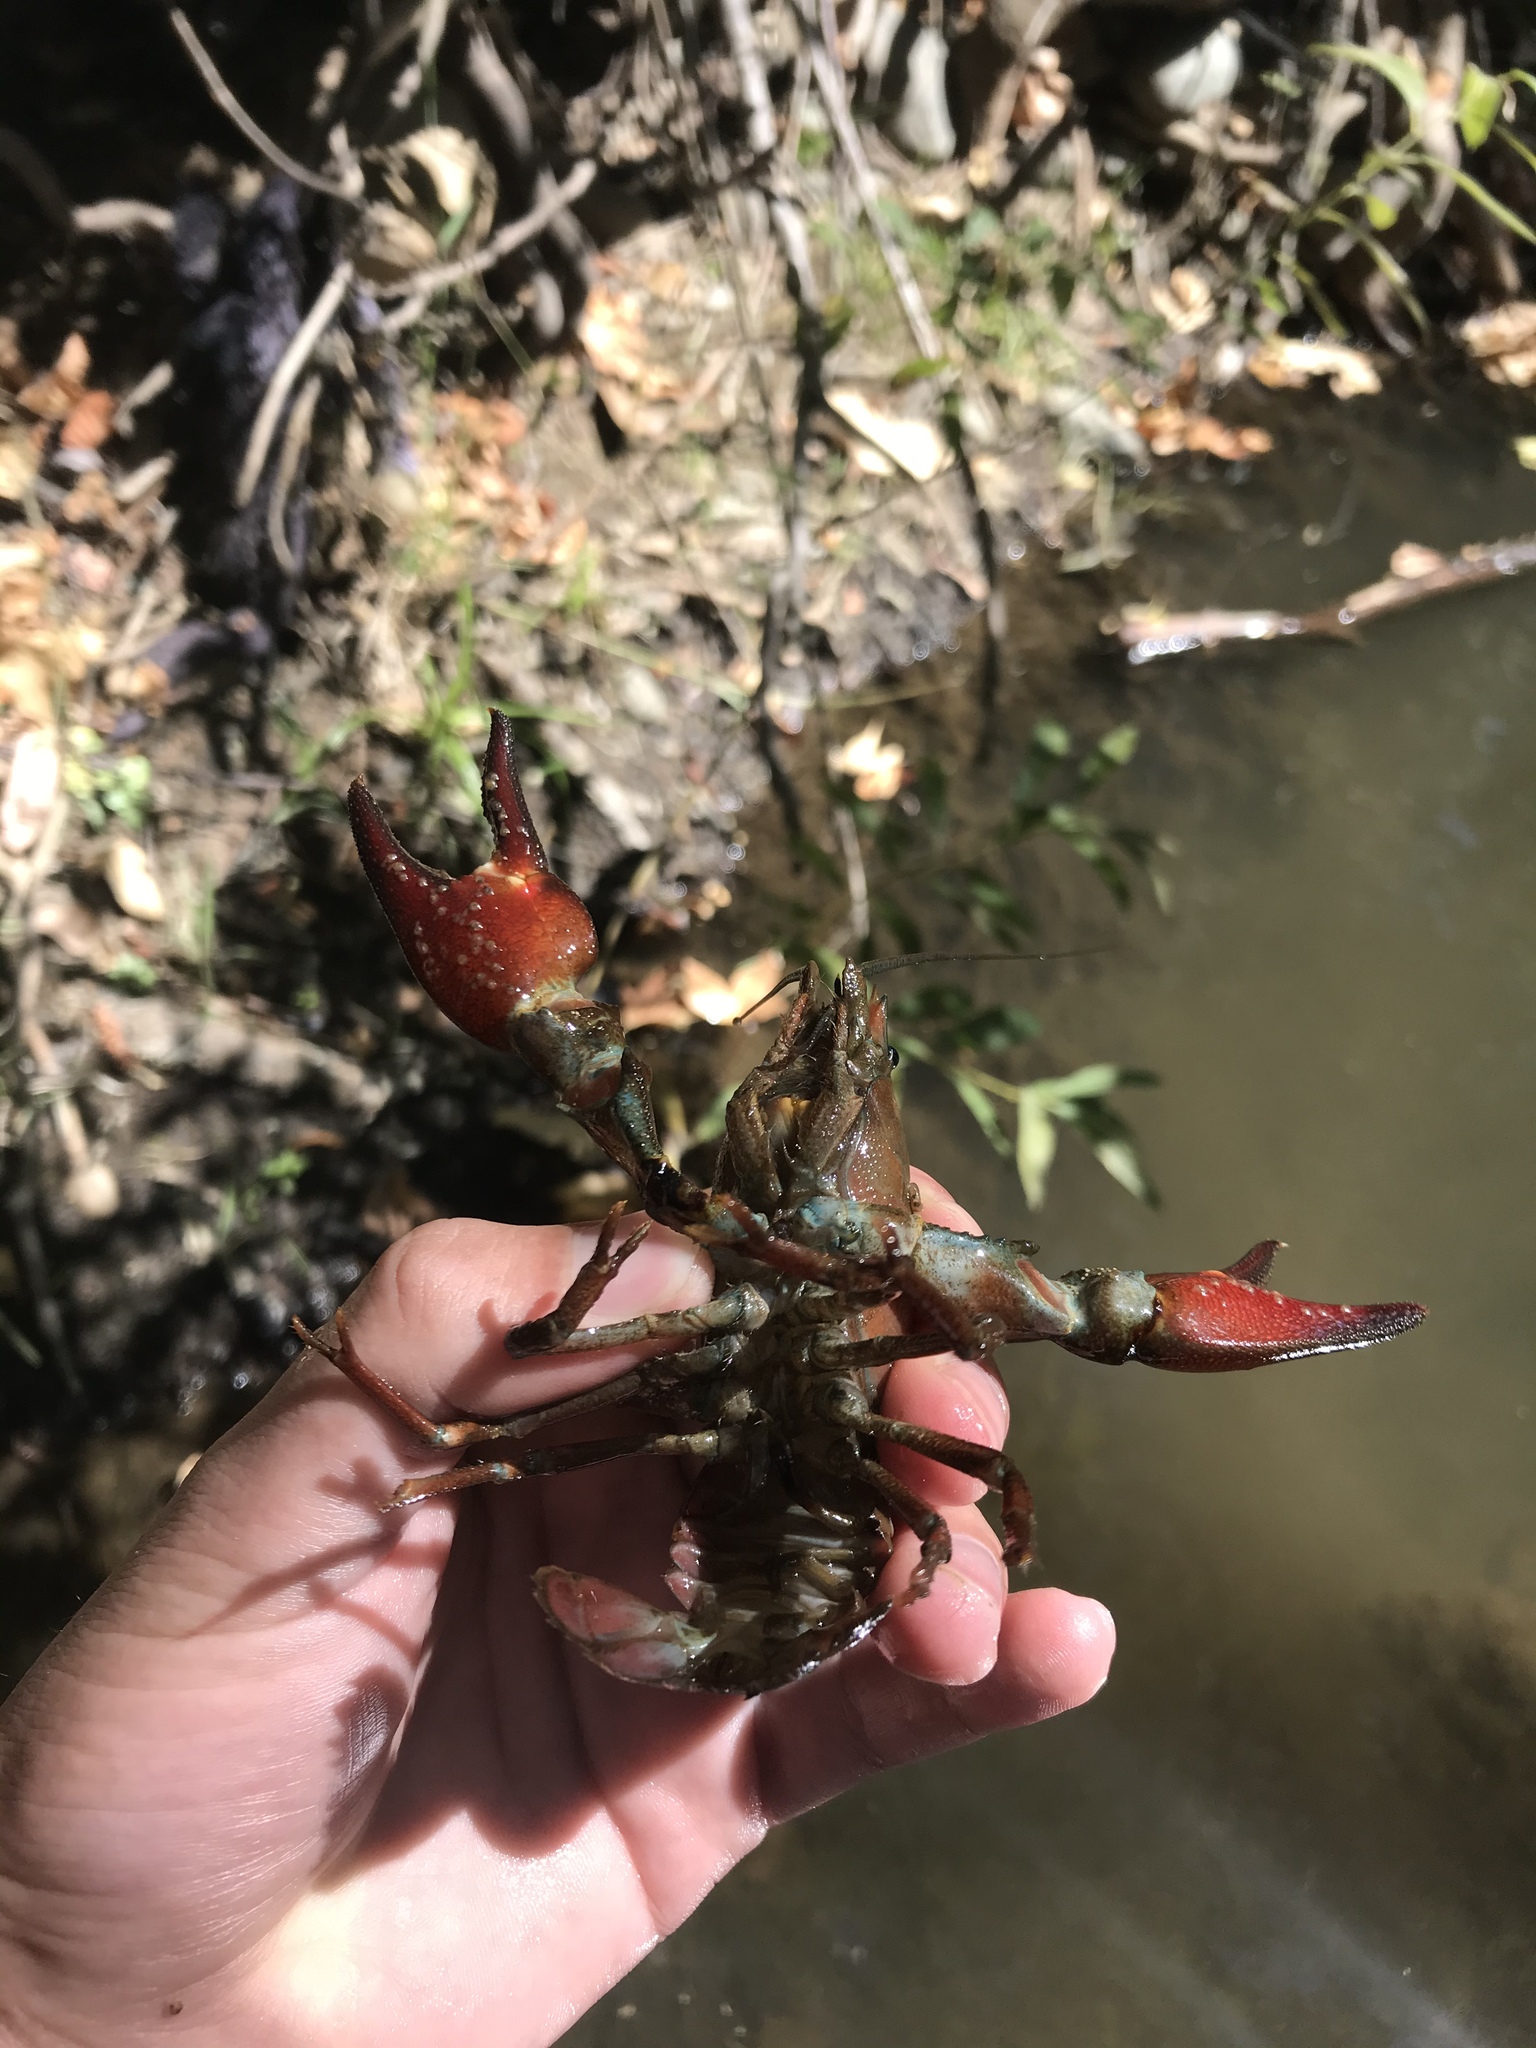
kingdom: Animalia
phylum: Arthropoda
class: Malacostraca
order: Decapoda
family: Astacidae
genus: Pacifastacus
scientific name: Pacifastacus leniusculus
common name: Signal crayfish
